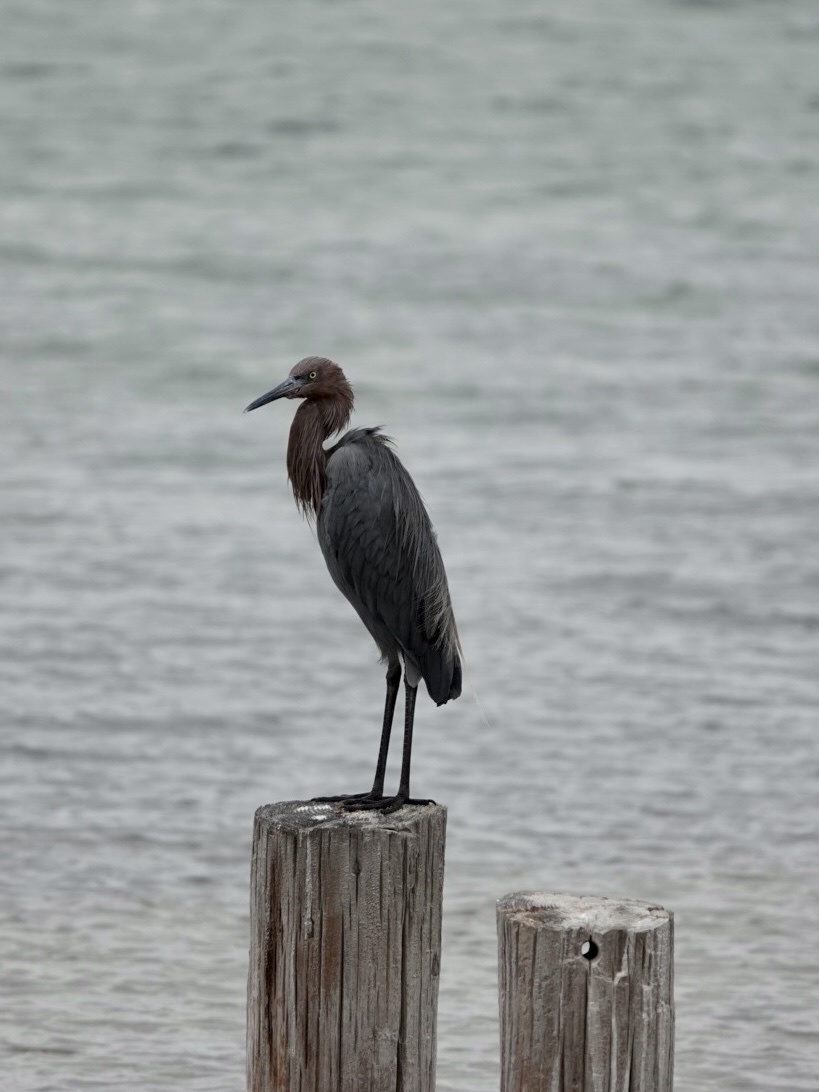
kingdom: Animalia
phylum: Chordata
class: Aves
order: Pelecaniformes
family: Ardeidae
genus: Egretta
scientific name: Egretta rufescens
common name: Reddish egret
